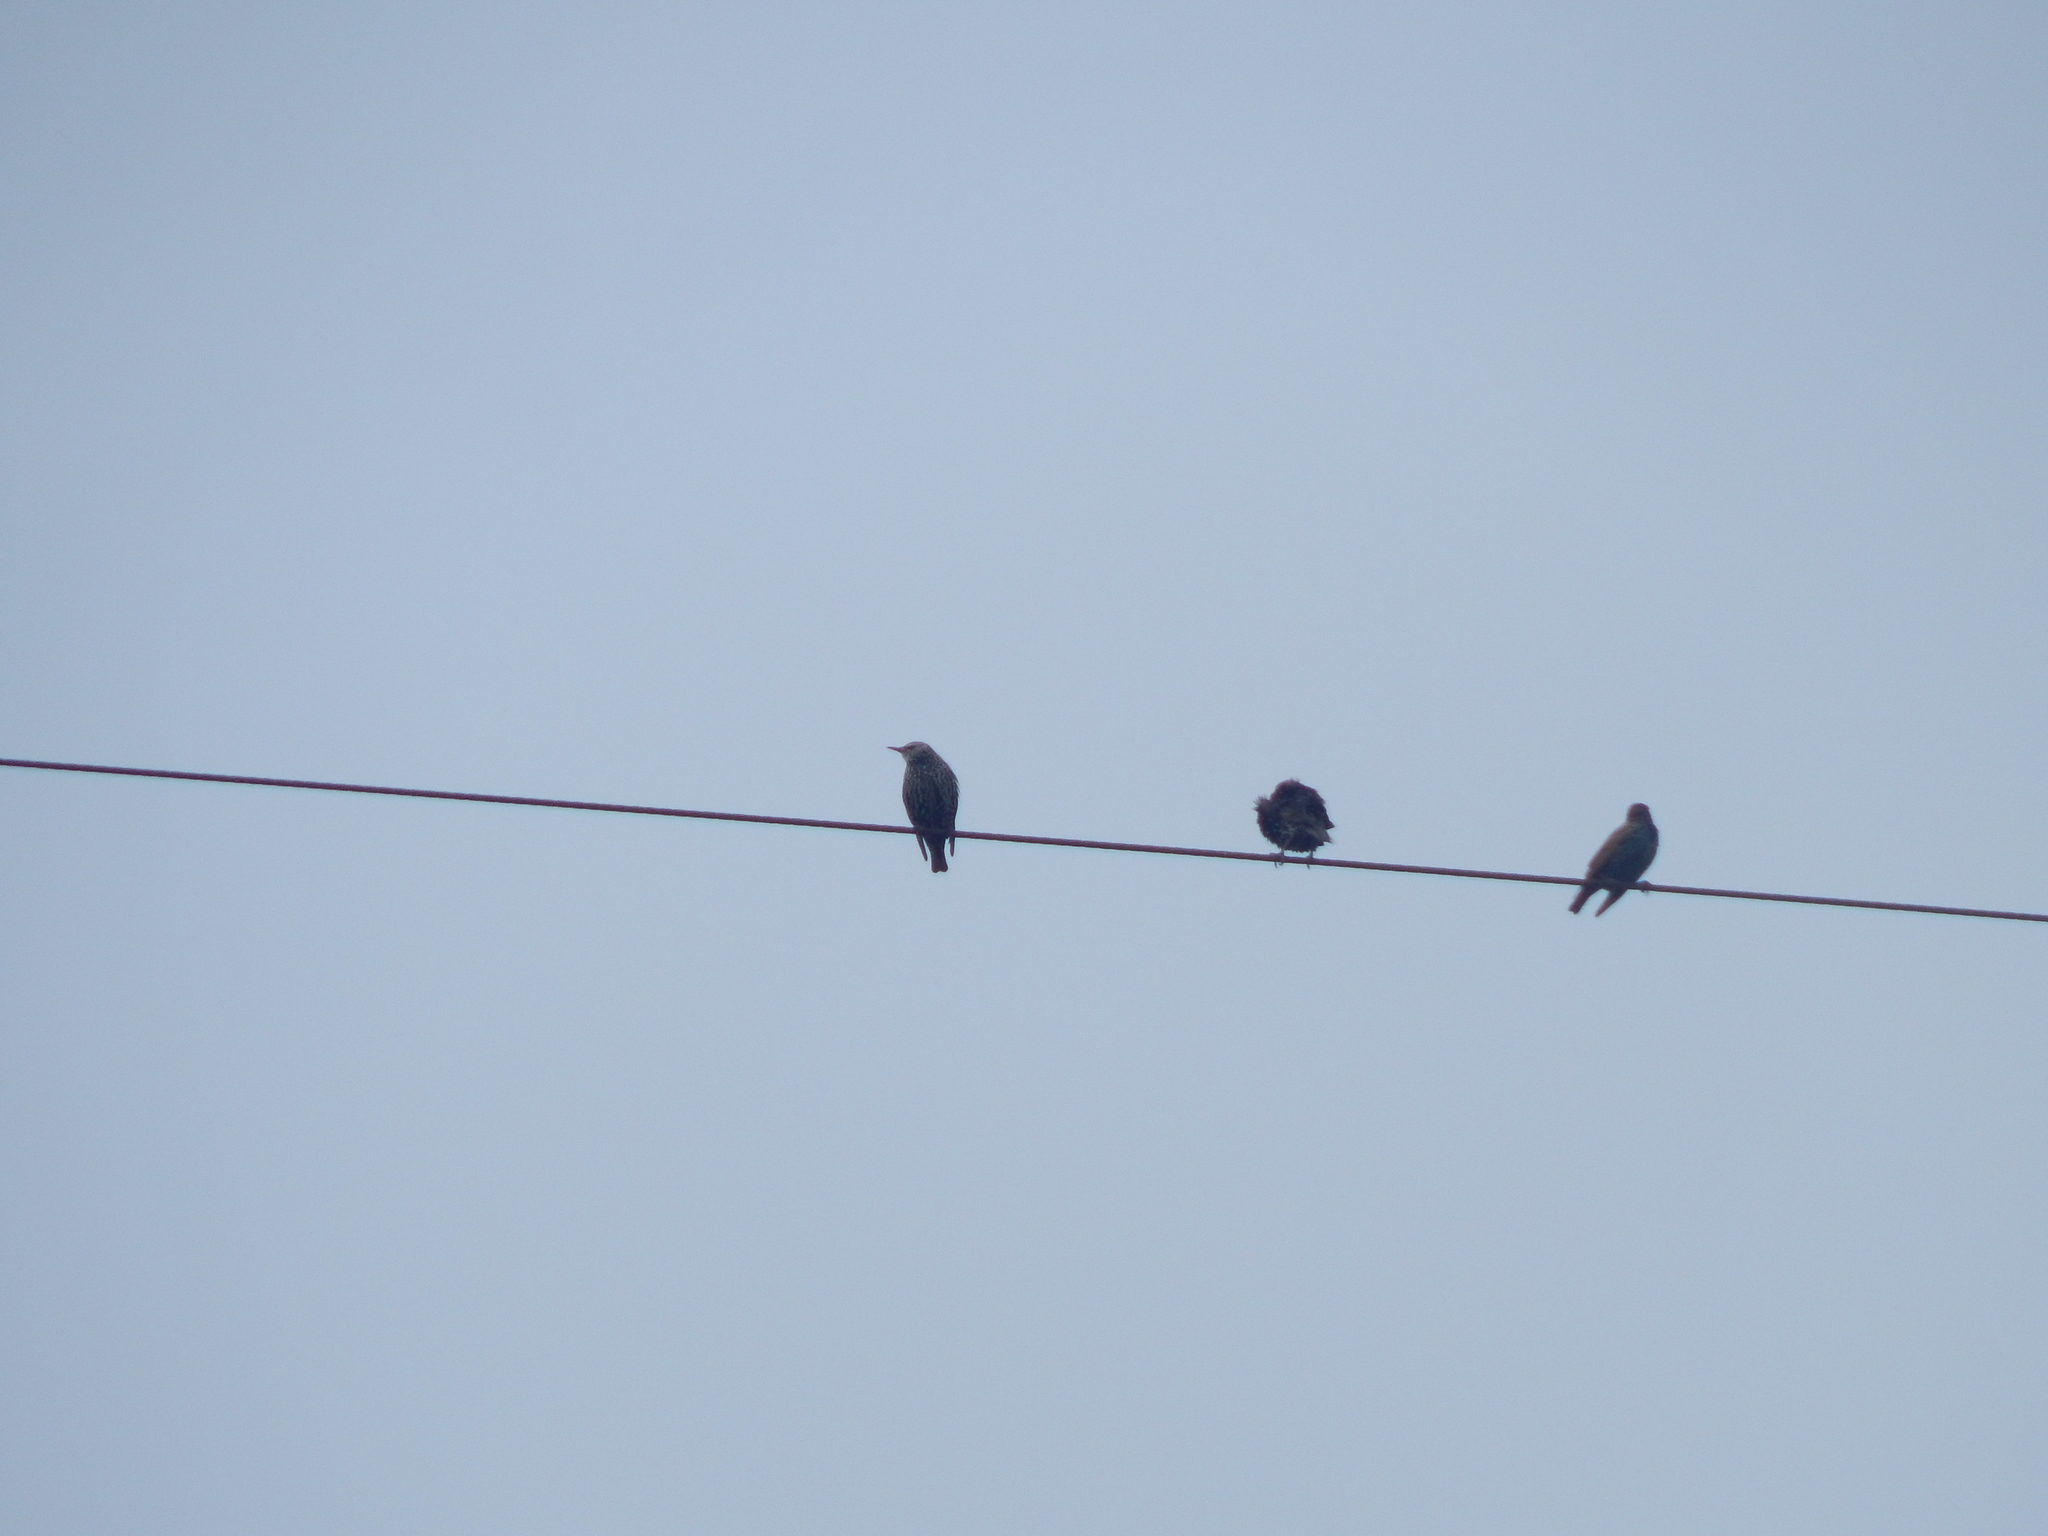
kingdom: Animalia
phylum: Chordata
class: Aves
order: Passeriformes
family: Sturnidae
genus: Sturnus
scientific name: Sturnus vulgaris
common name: Common starling
